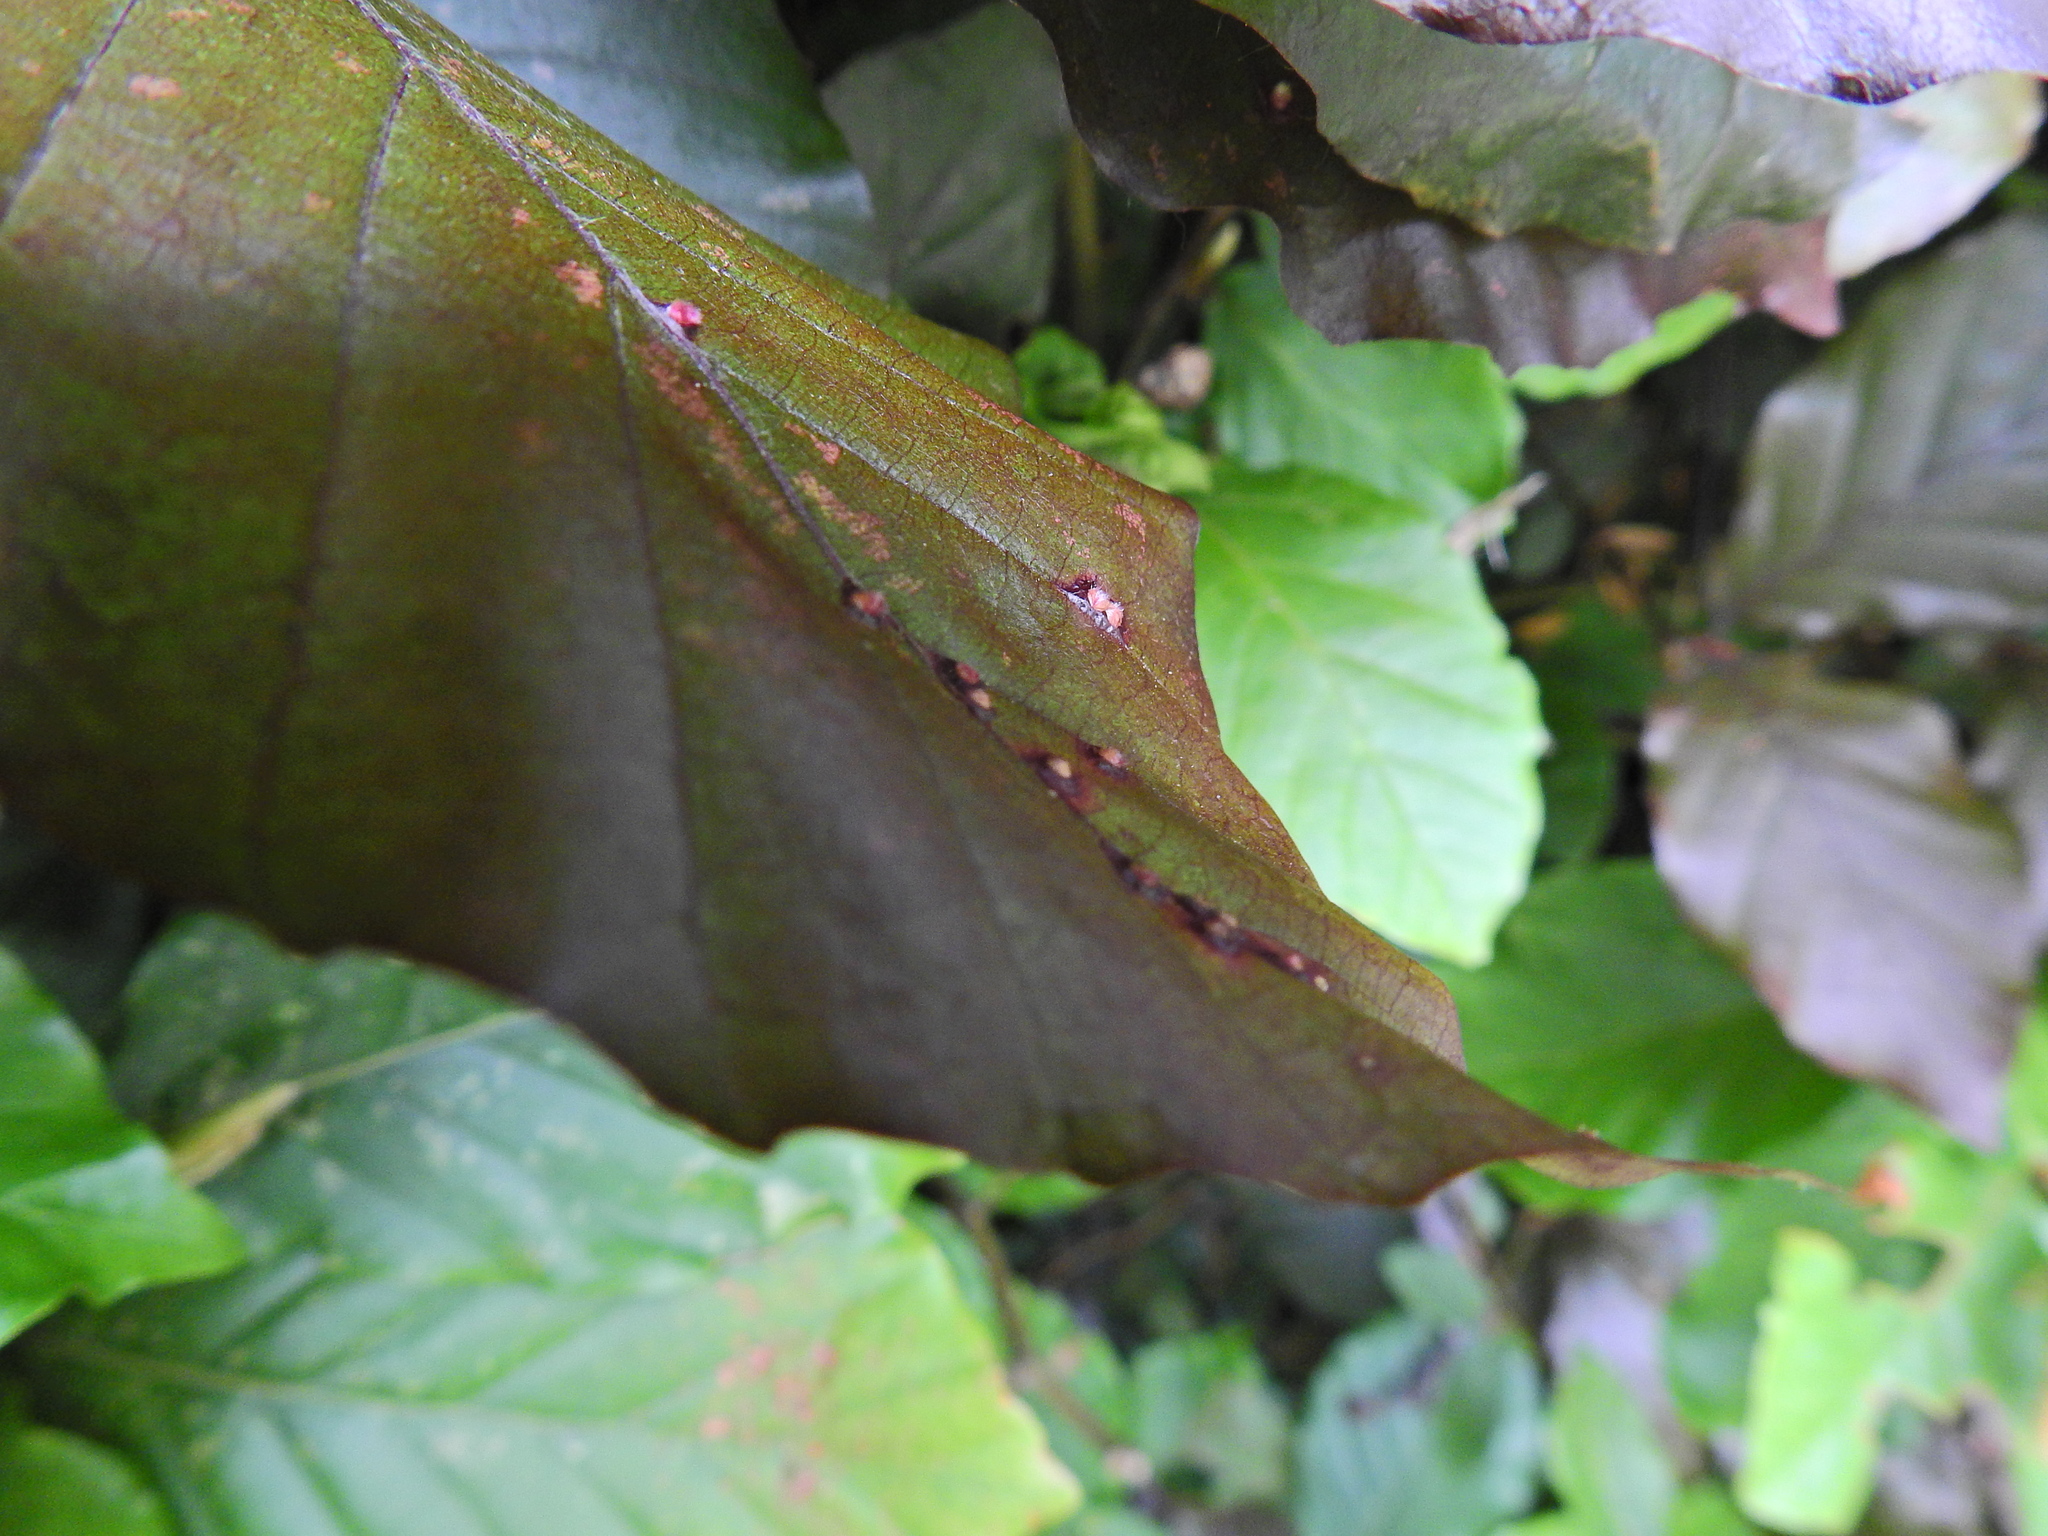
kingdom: Animalia
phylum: Arthropoda
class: Insecta
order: Diptera
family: Cecidomyiidae
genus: Hartigiola
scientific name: Hartigiola annulipes
